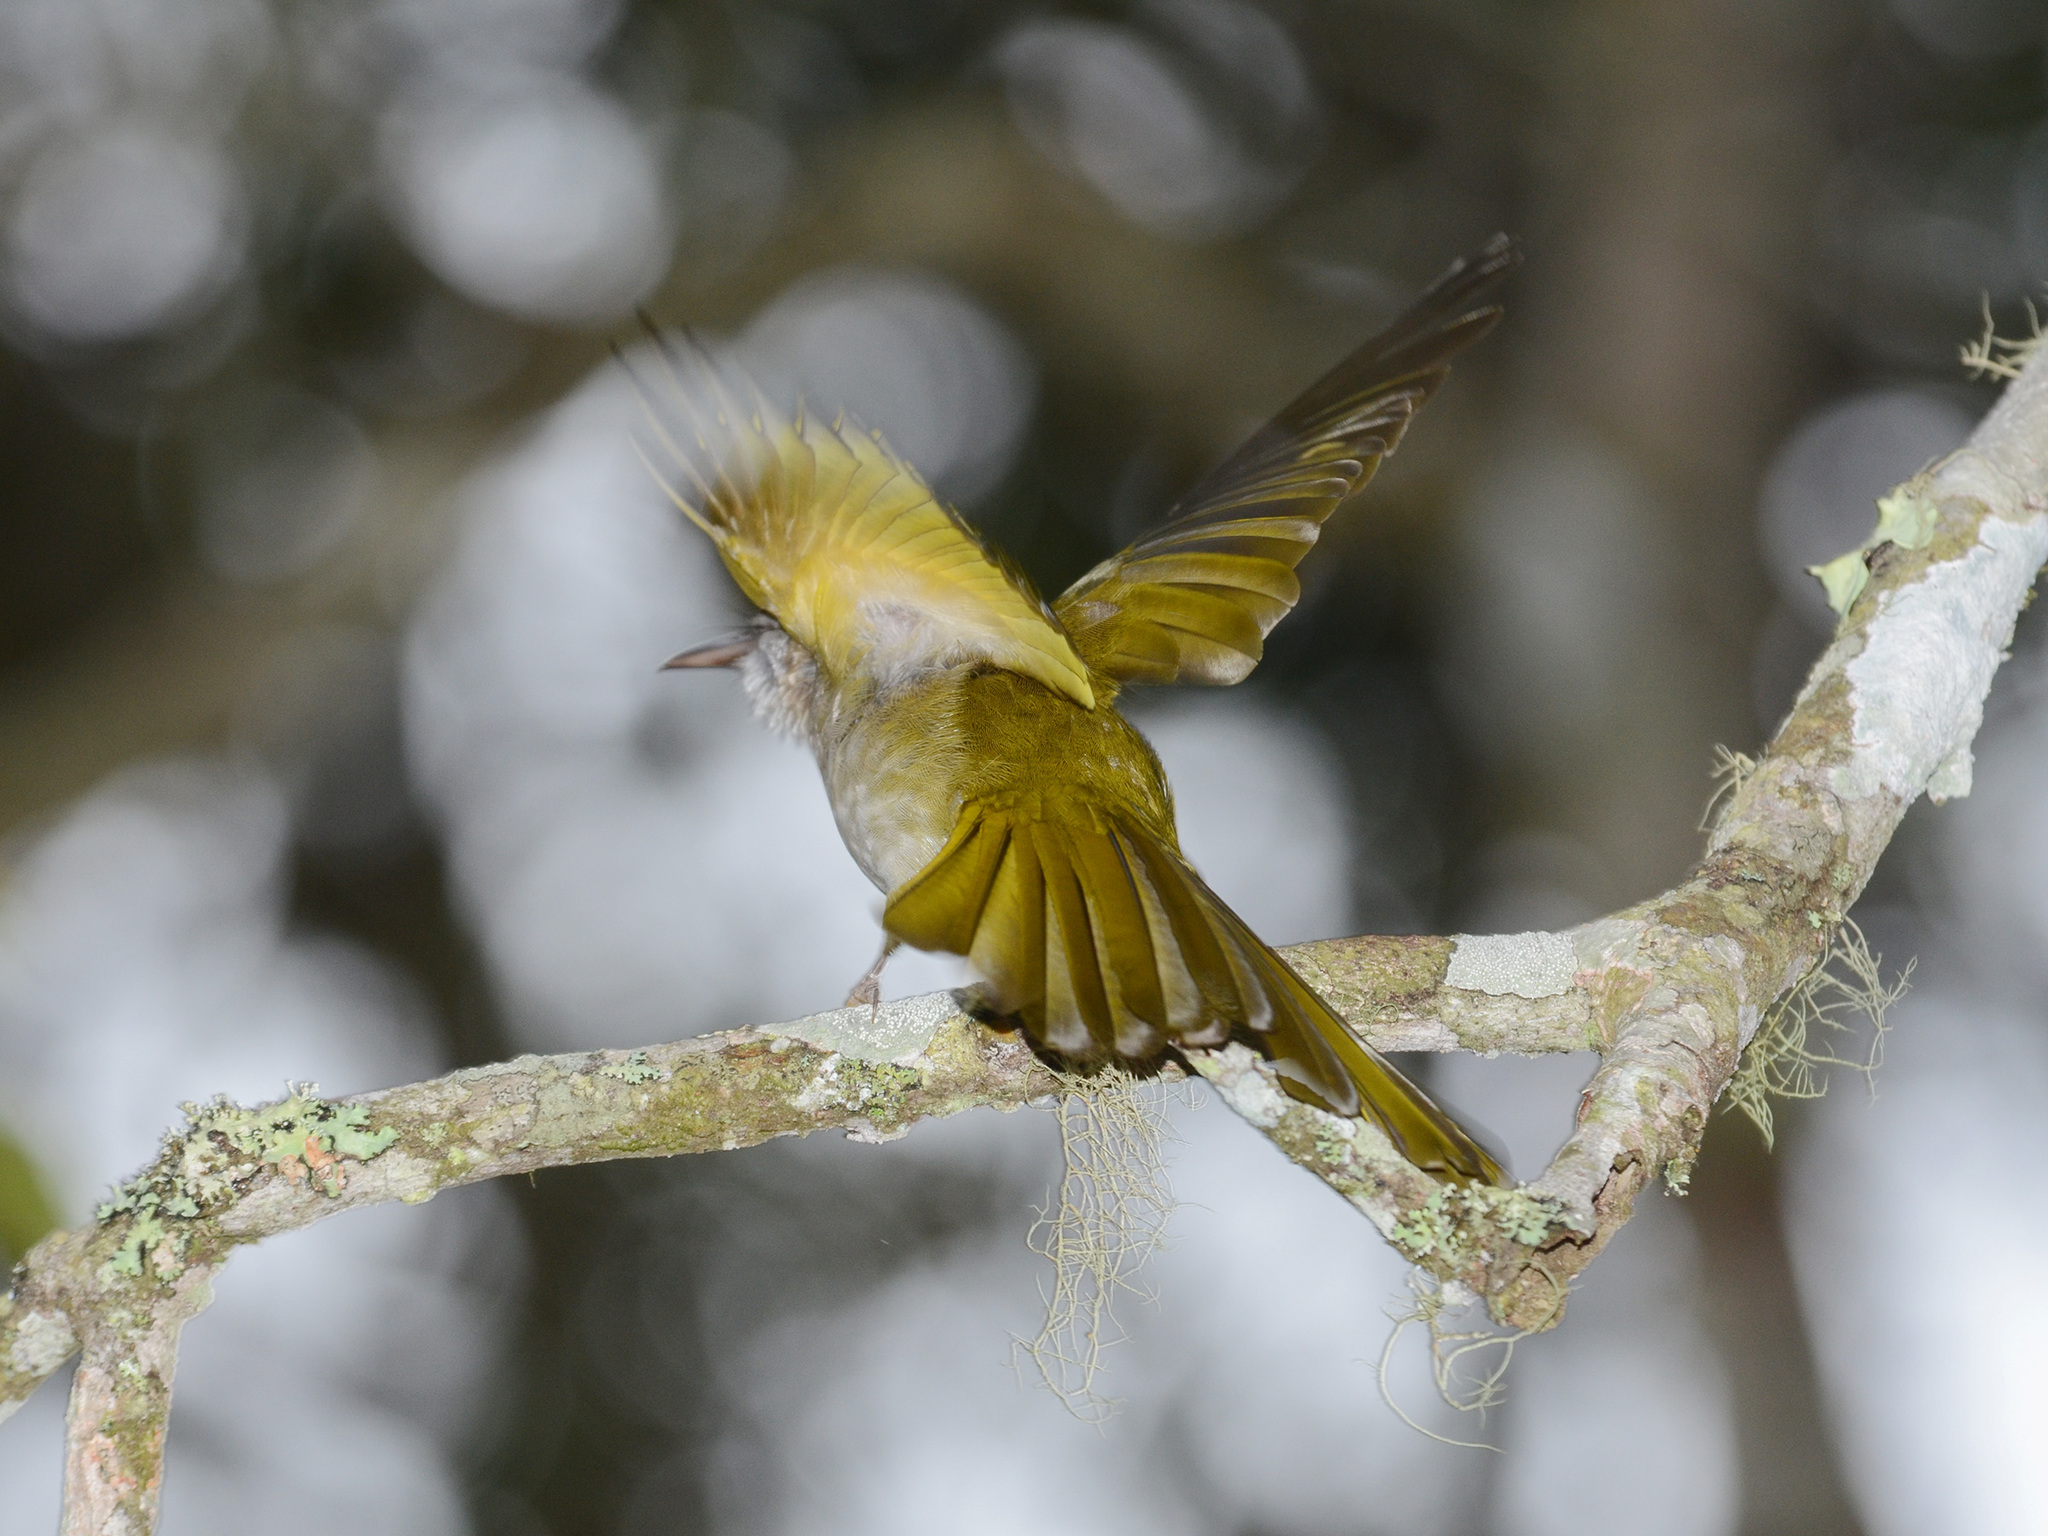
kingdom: Animalia
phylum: Chordata
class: Aves
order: Passeriformes
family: Pycnonotidae
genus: Ixos
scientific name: Ixos mcclellandii
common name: Mountain bulbul
